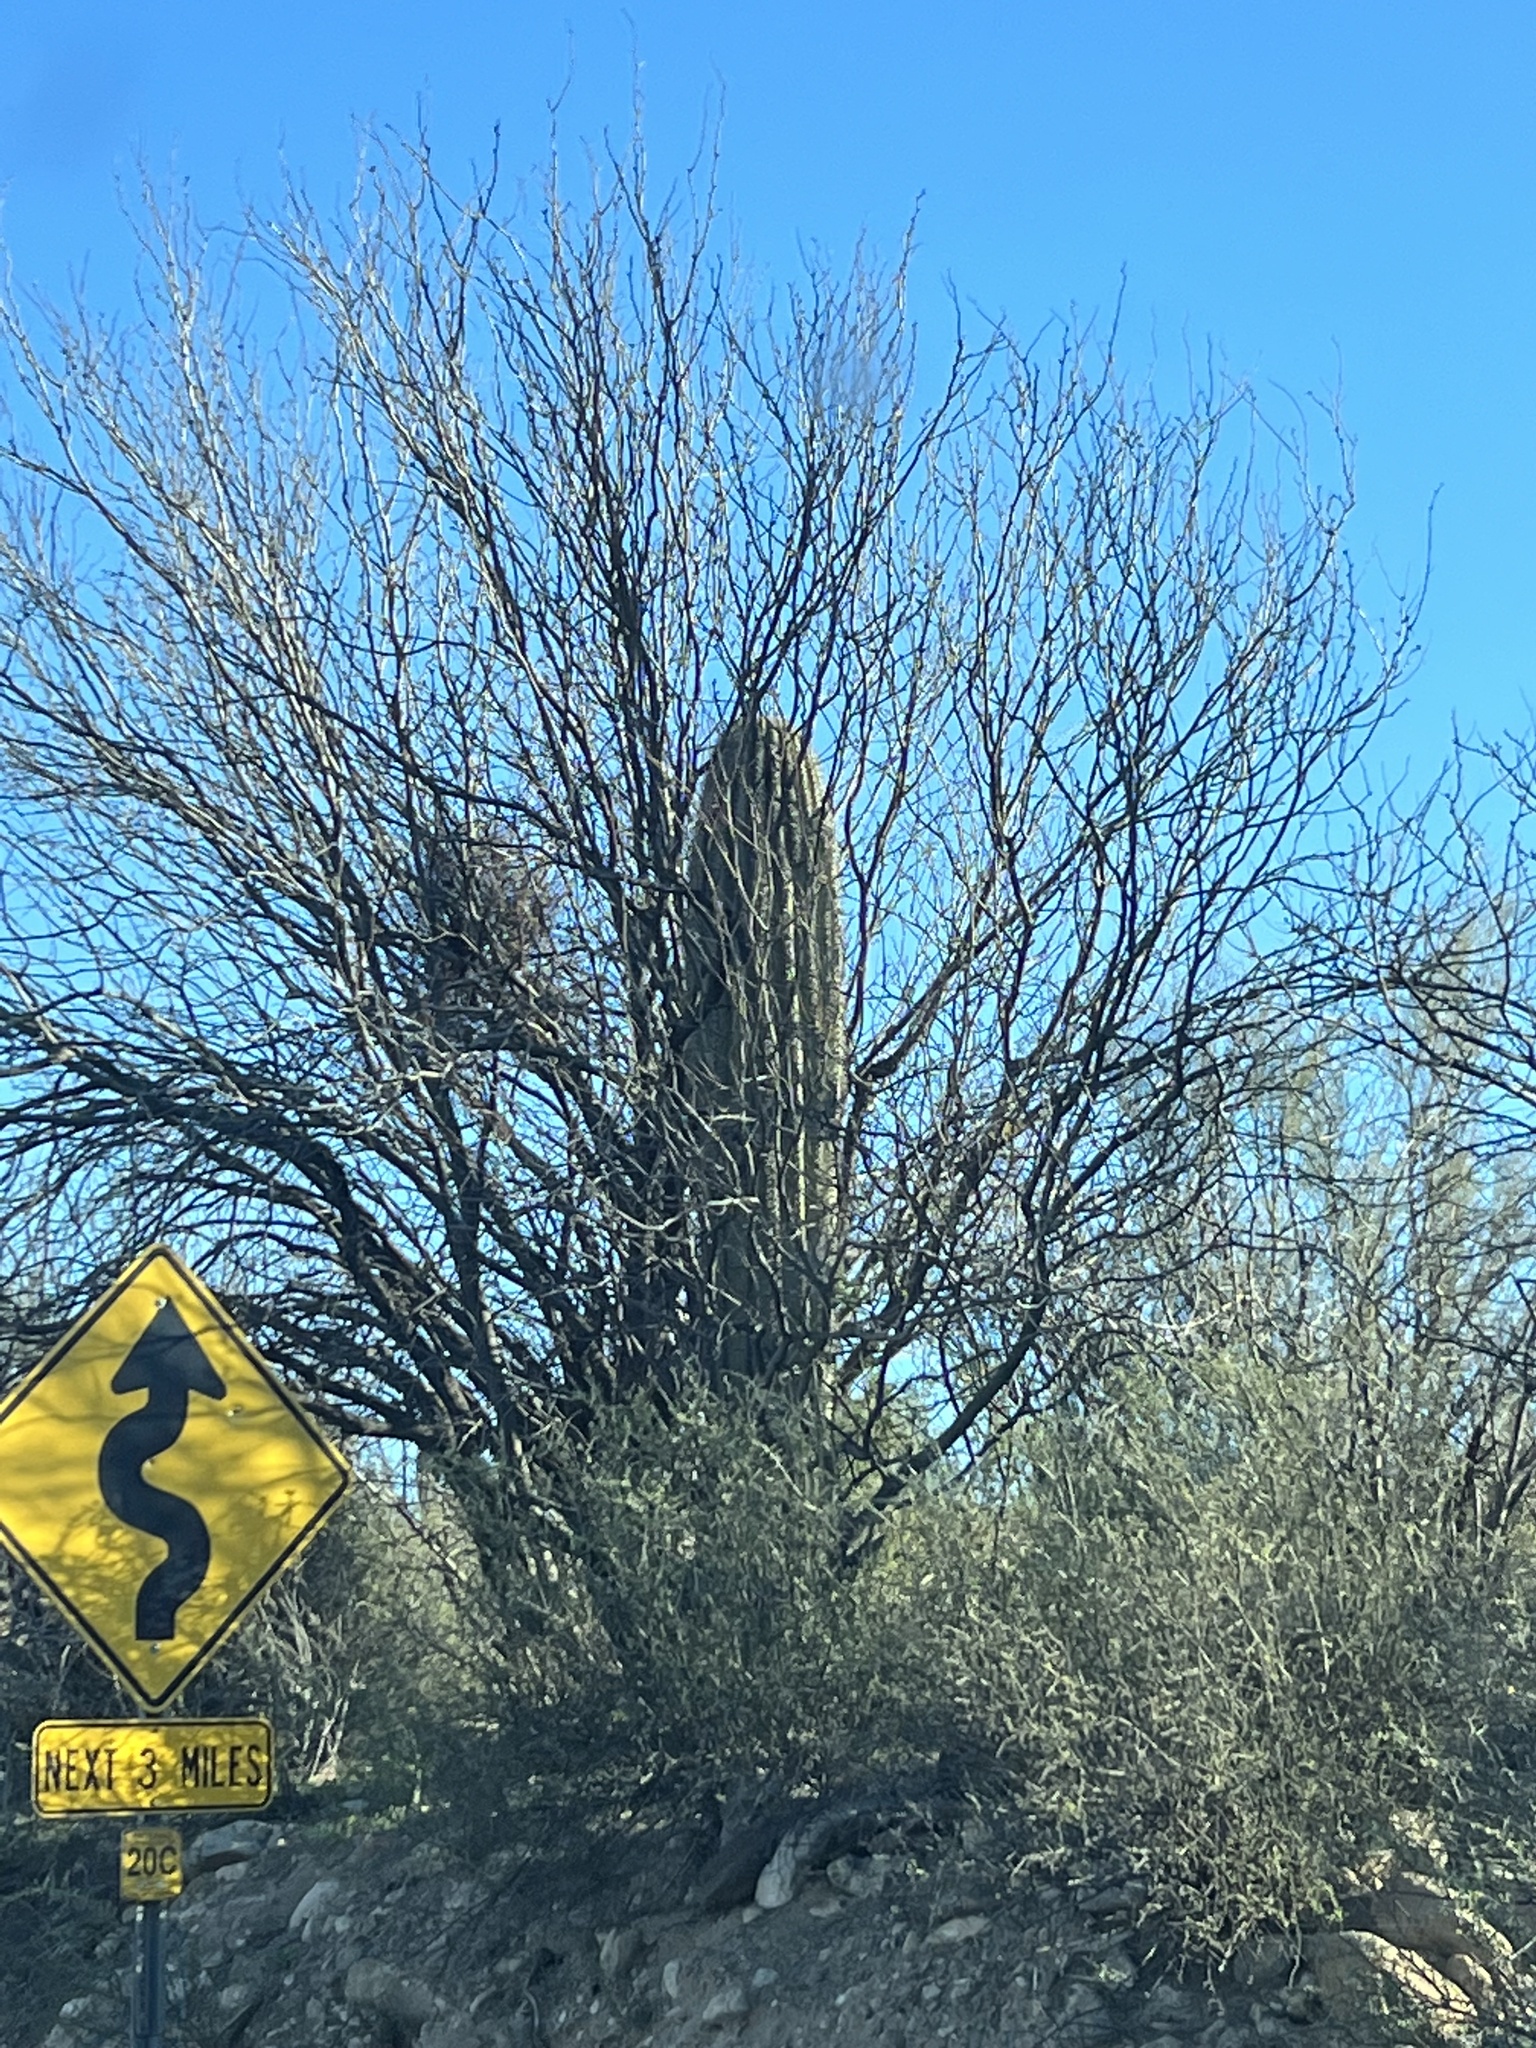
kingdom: Plantae
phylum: Tracheophyta
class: Magnoliopsida
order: Caryophyllales
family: Cactaceae
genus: Carnegiea
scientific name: Carnegiea gigantea
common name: Saguaro
